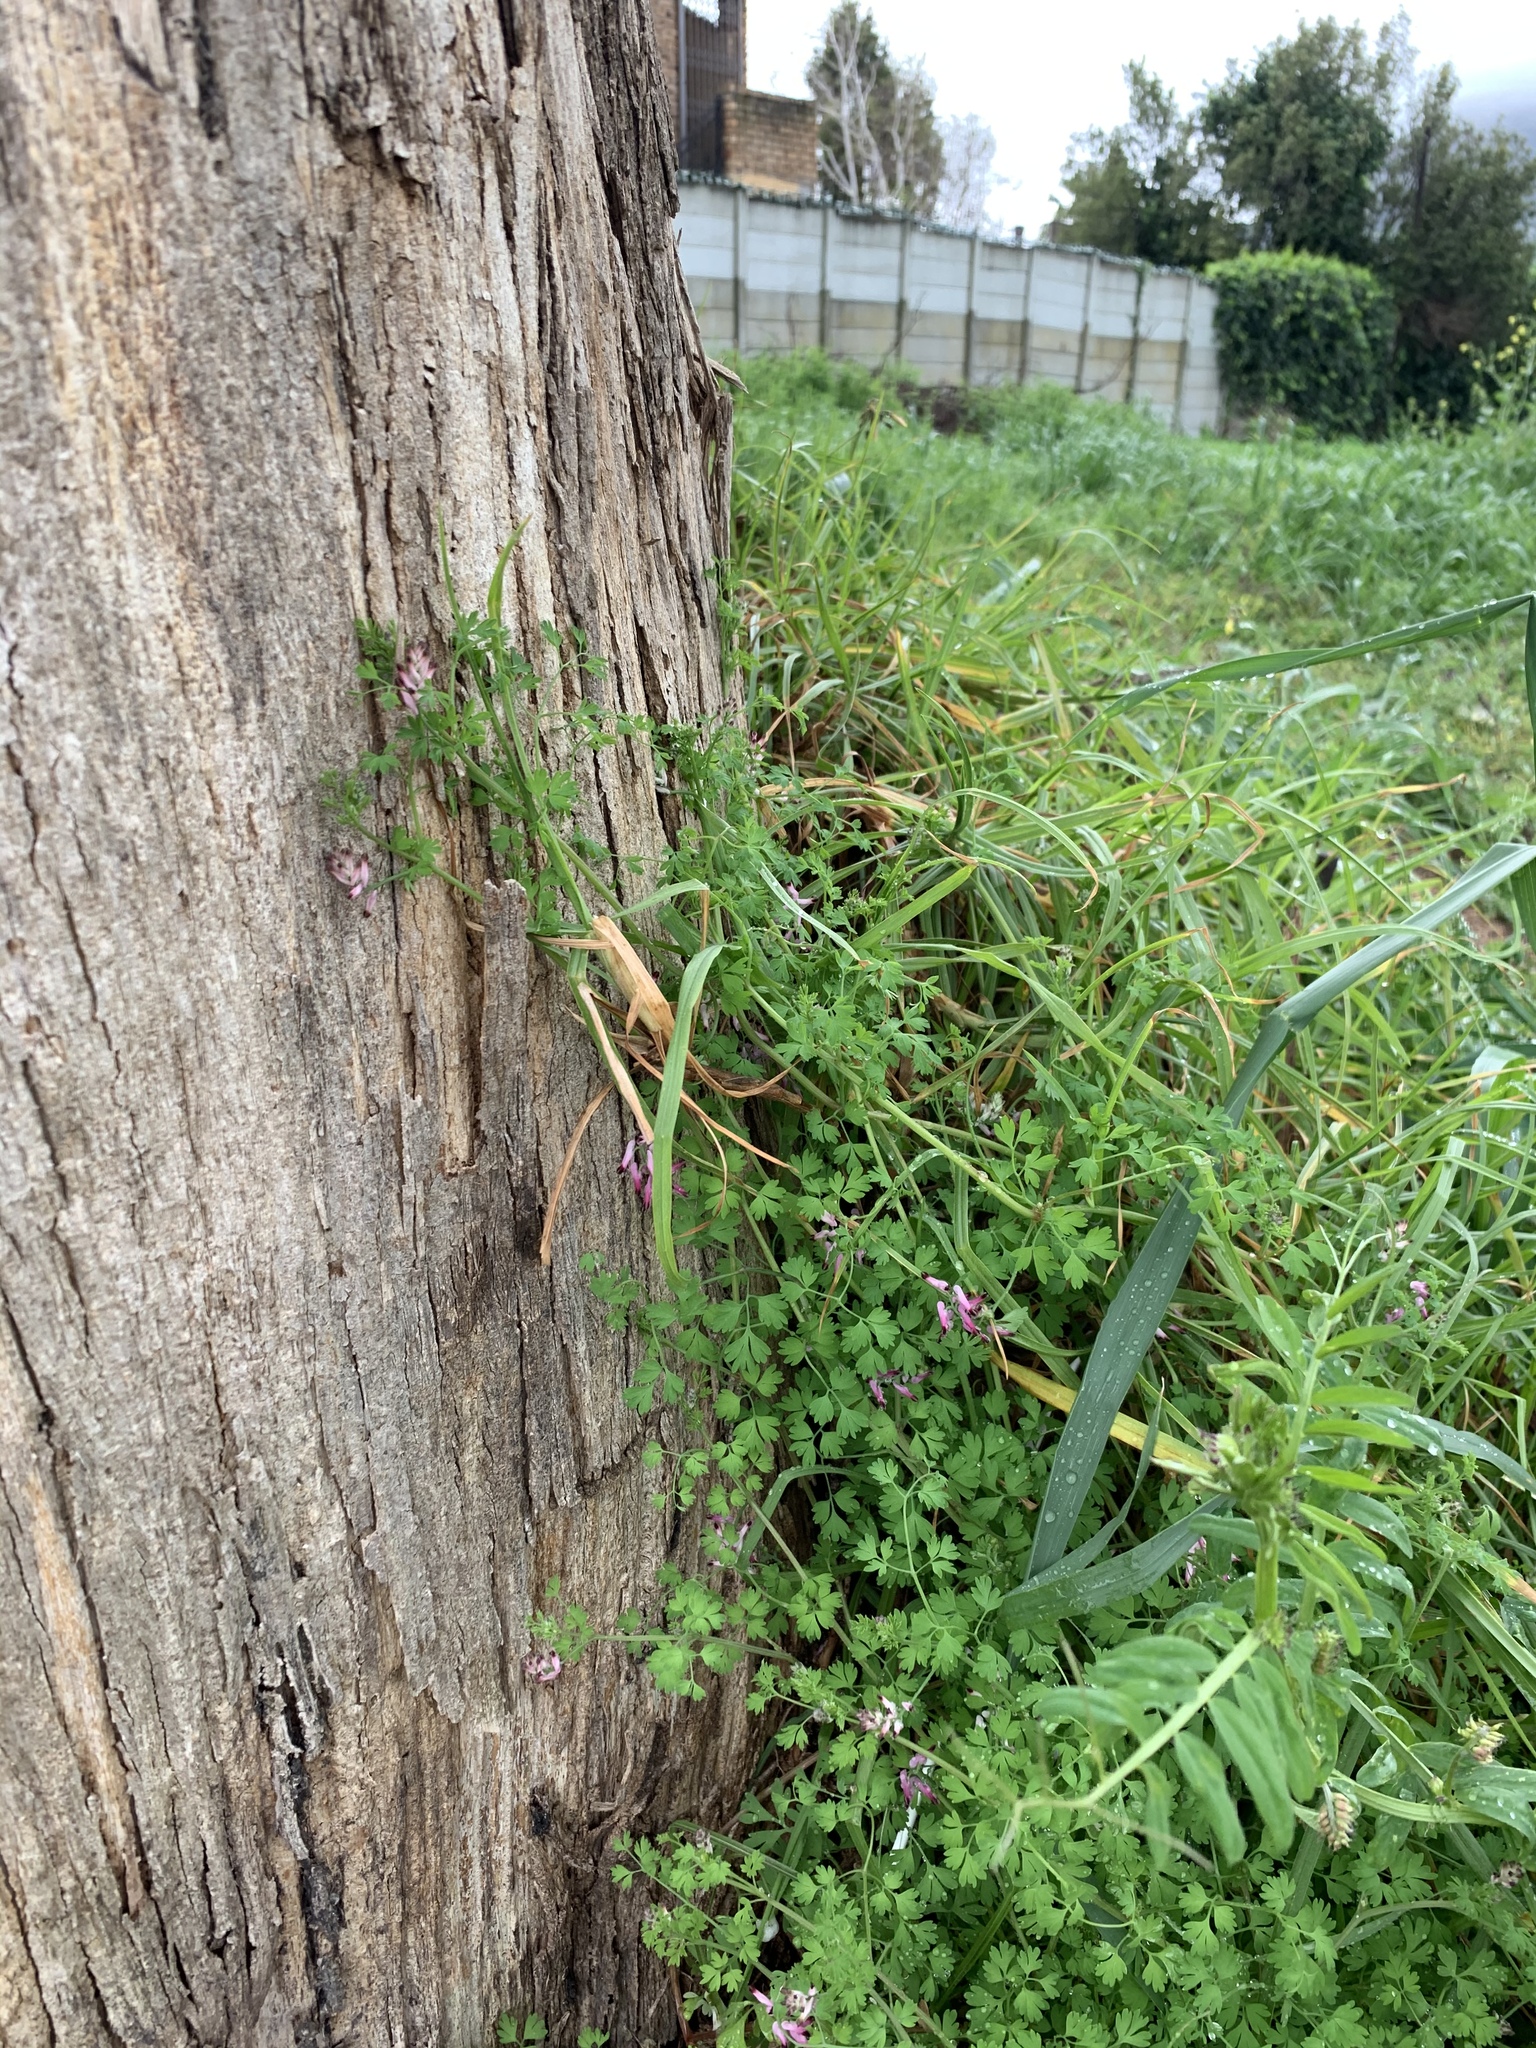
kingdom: Plantae
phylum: Tracheophyta
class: Magnoliopsida
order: Ranunculales
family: Papaveraceae
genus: Fumaria
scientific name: Fumaria muralis
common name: Common ramping-fumitory
